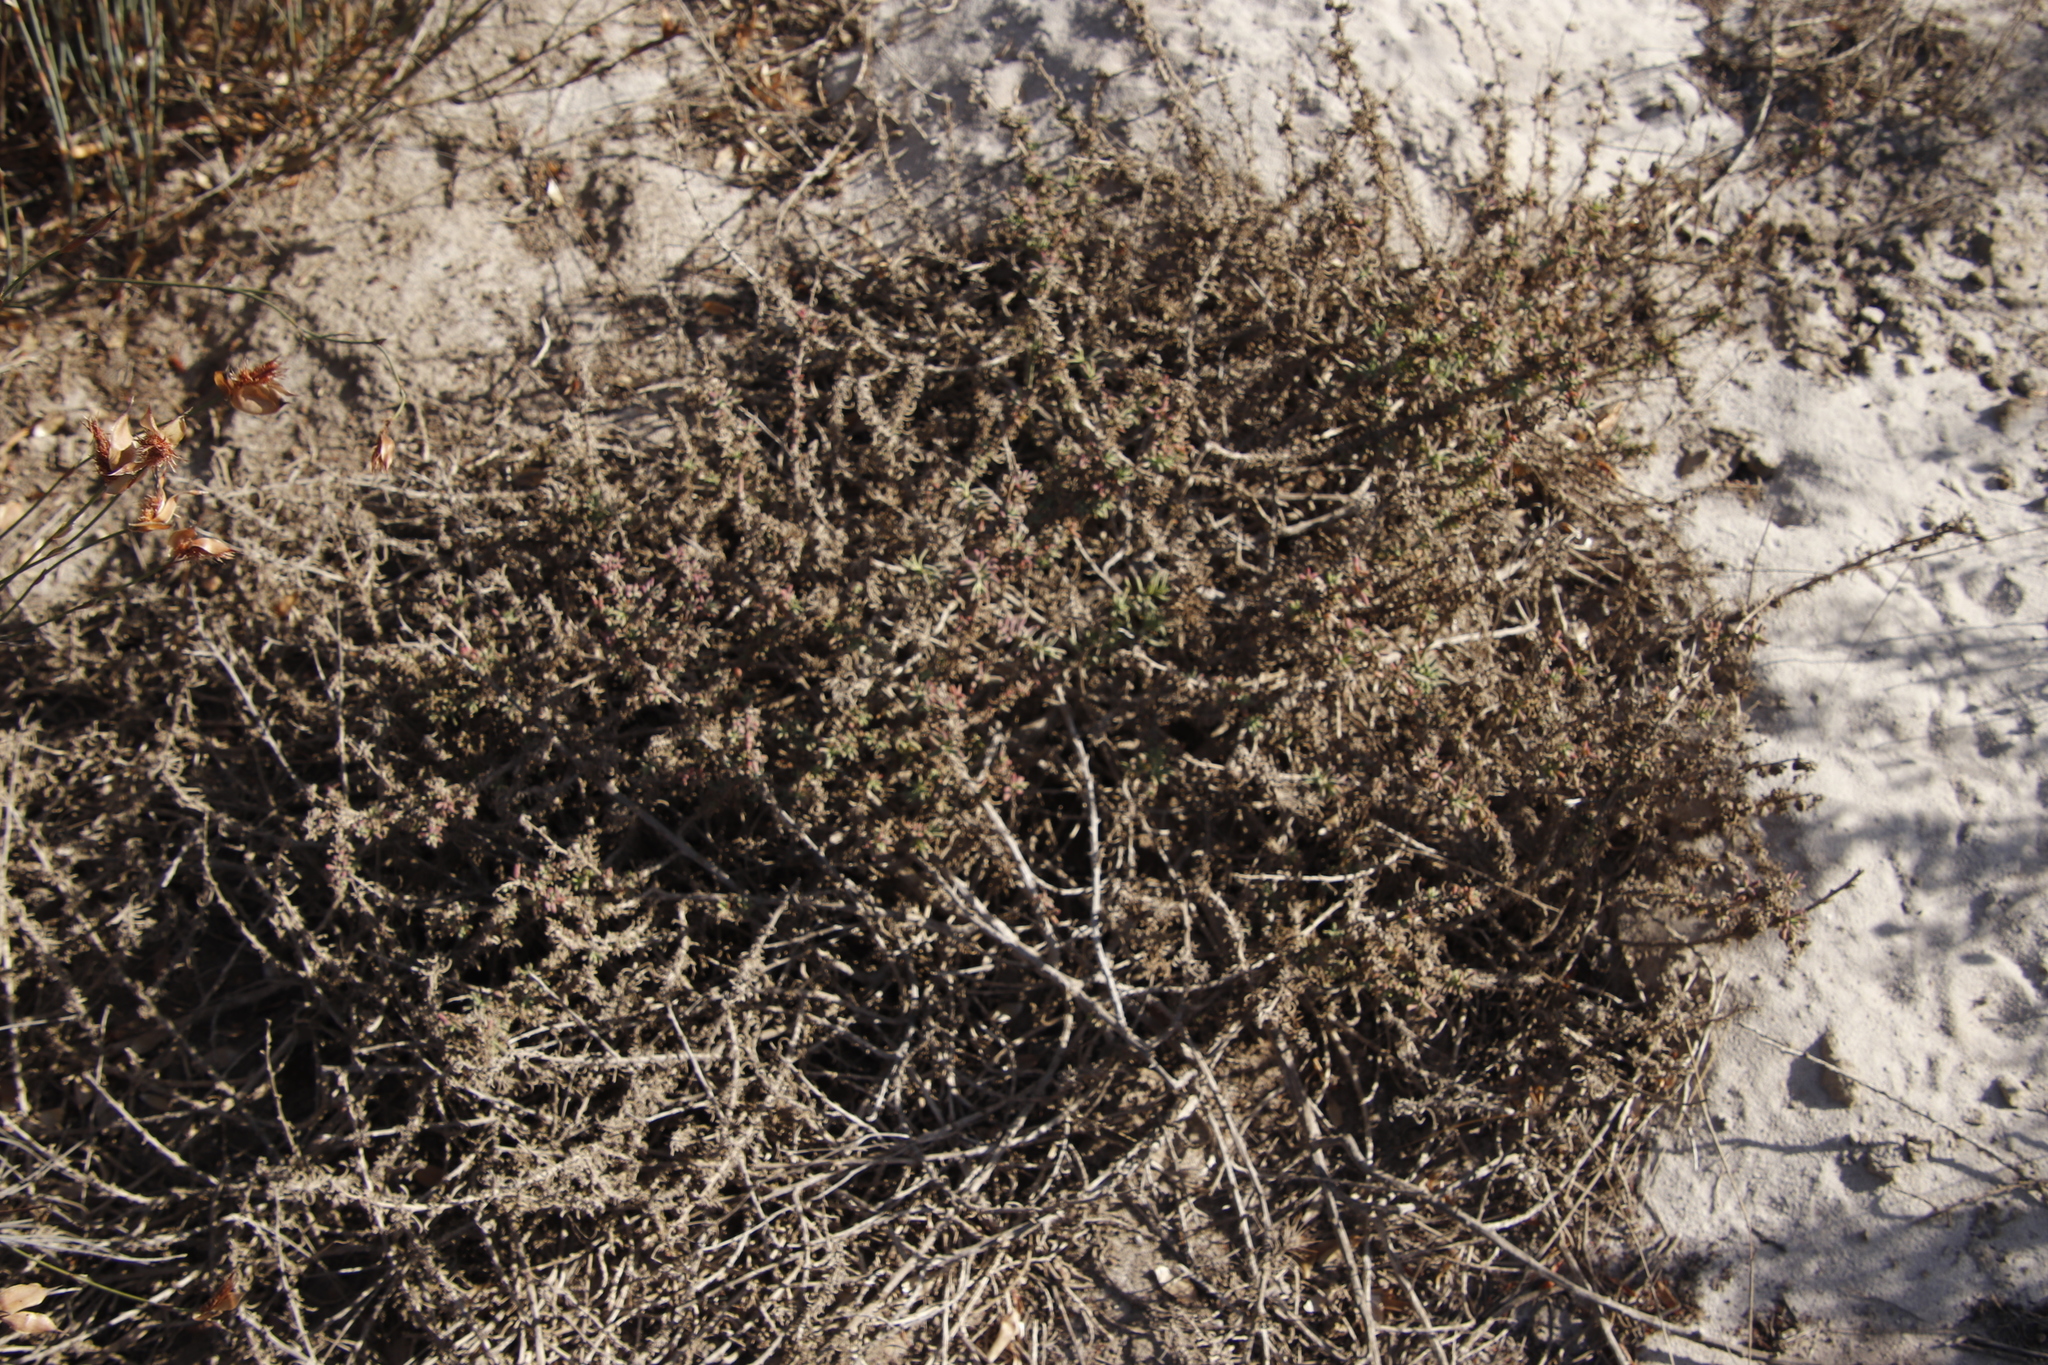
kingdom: Plantae
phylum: Tracheophyta
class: Magnoliopsida
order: Caryophyllales
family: Aizoaceae
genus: Tetragonia
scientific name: Tetragonia fruticosa
